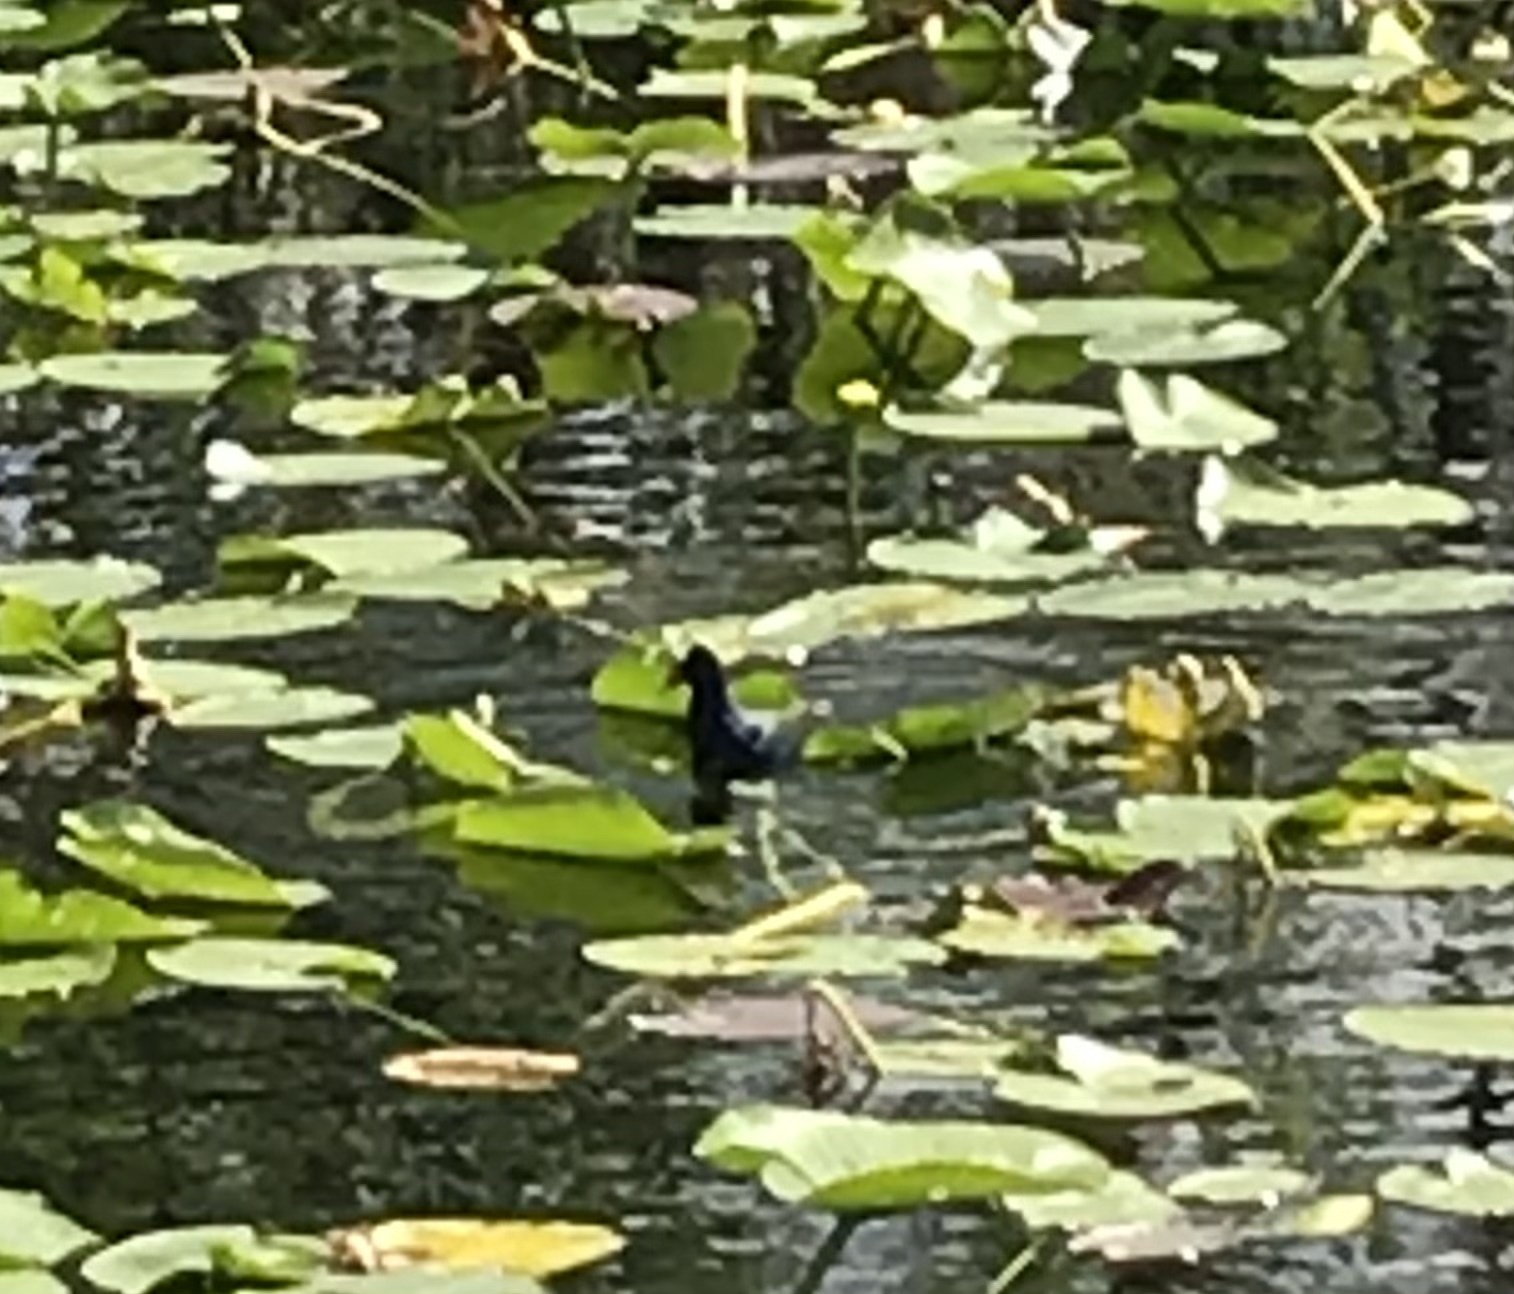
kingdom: Animalia
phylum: Chordata
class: Aves
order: Gruiformes
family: Rallidae
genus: Porphyrio
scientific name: Porphyrio martinica
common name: Purple gallinule
